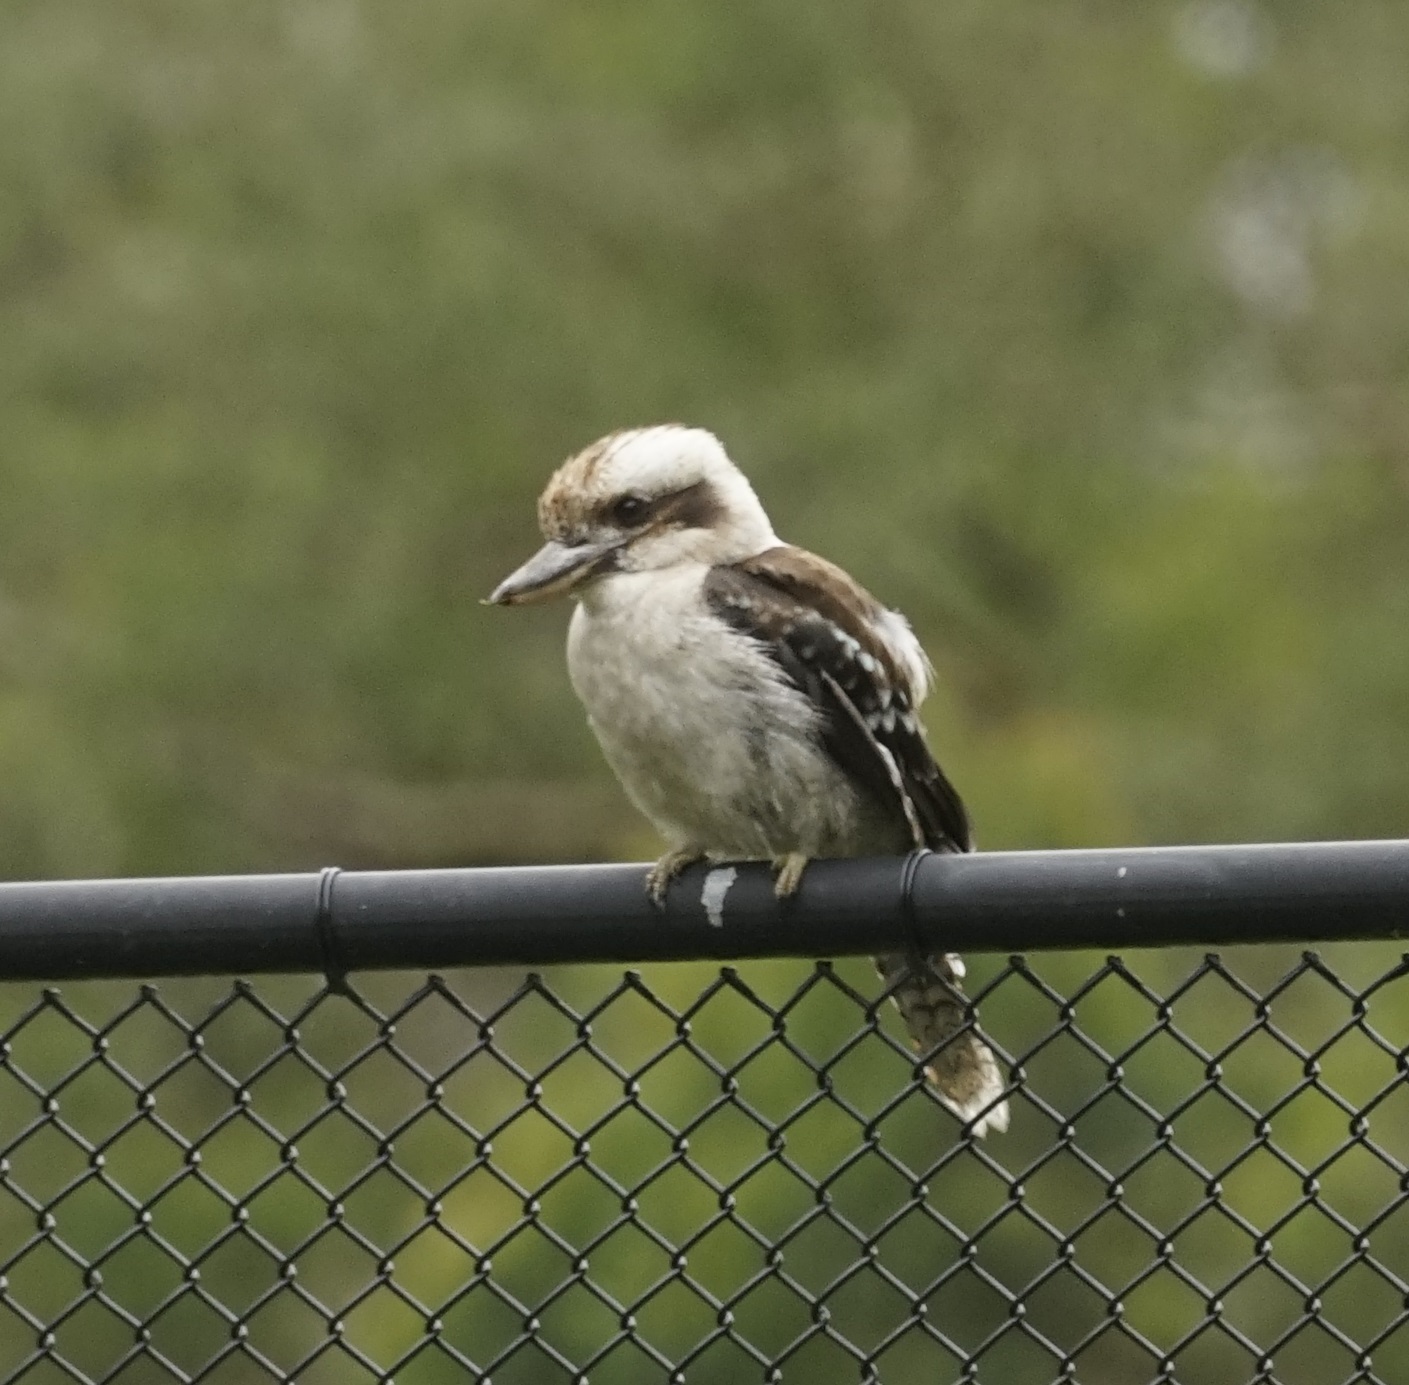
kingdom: Animalia
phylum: Chordata
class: Aves
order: Coraciiformes
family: Alcedinidae
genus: Dacelo
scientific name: Dacelo novaeguineae
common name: Laughing kookaburra
